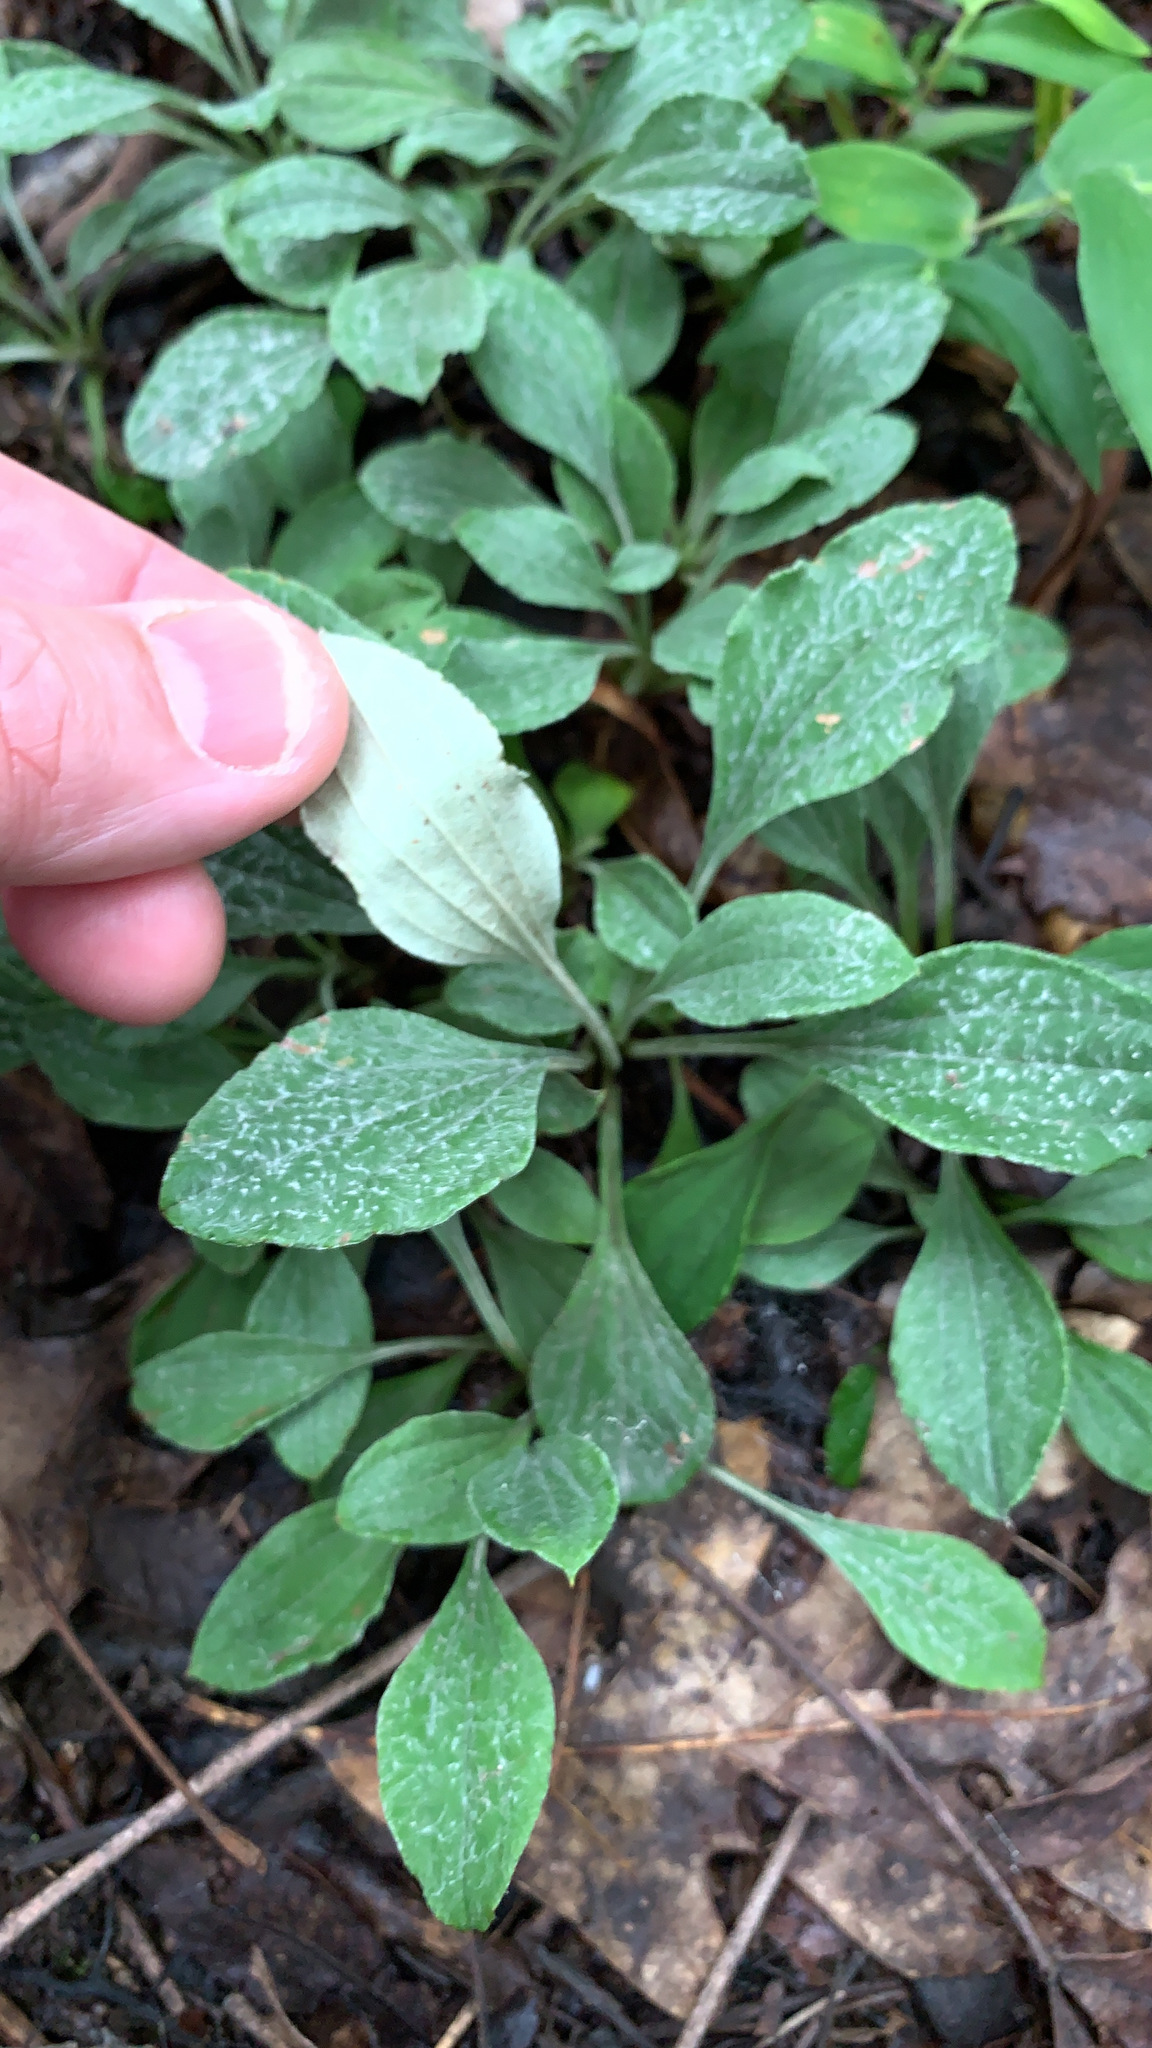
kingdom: Plantae
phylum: Tracheophyta
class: Magnoliopsida
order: Asterales
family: Asteraceae
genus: Antennaria
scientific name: Antennaria plantaginifolia
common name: Plantain-leaved pussytoes
